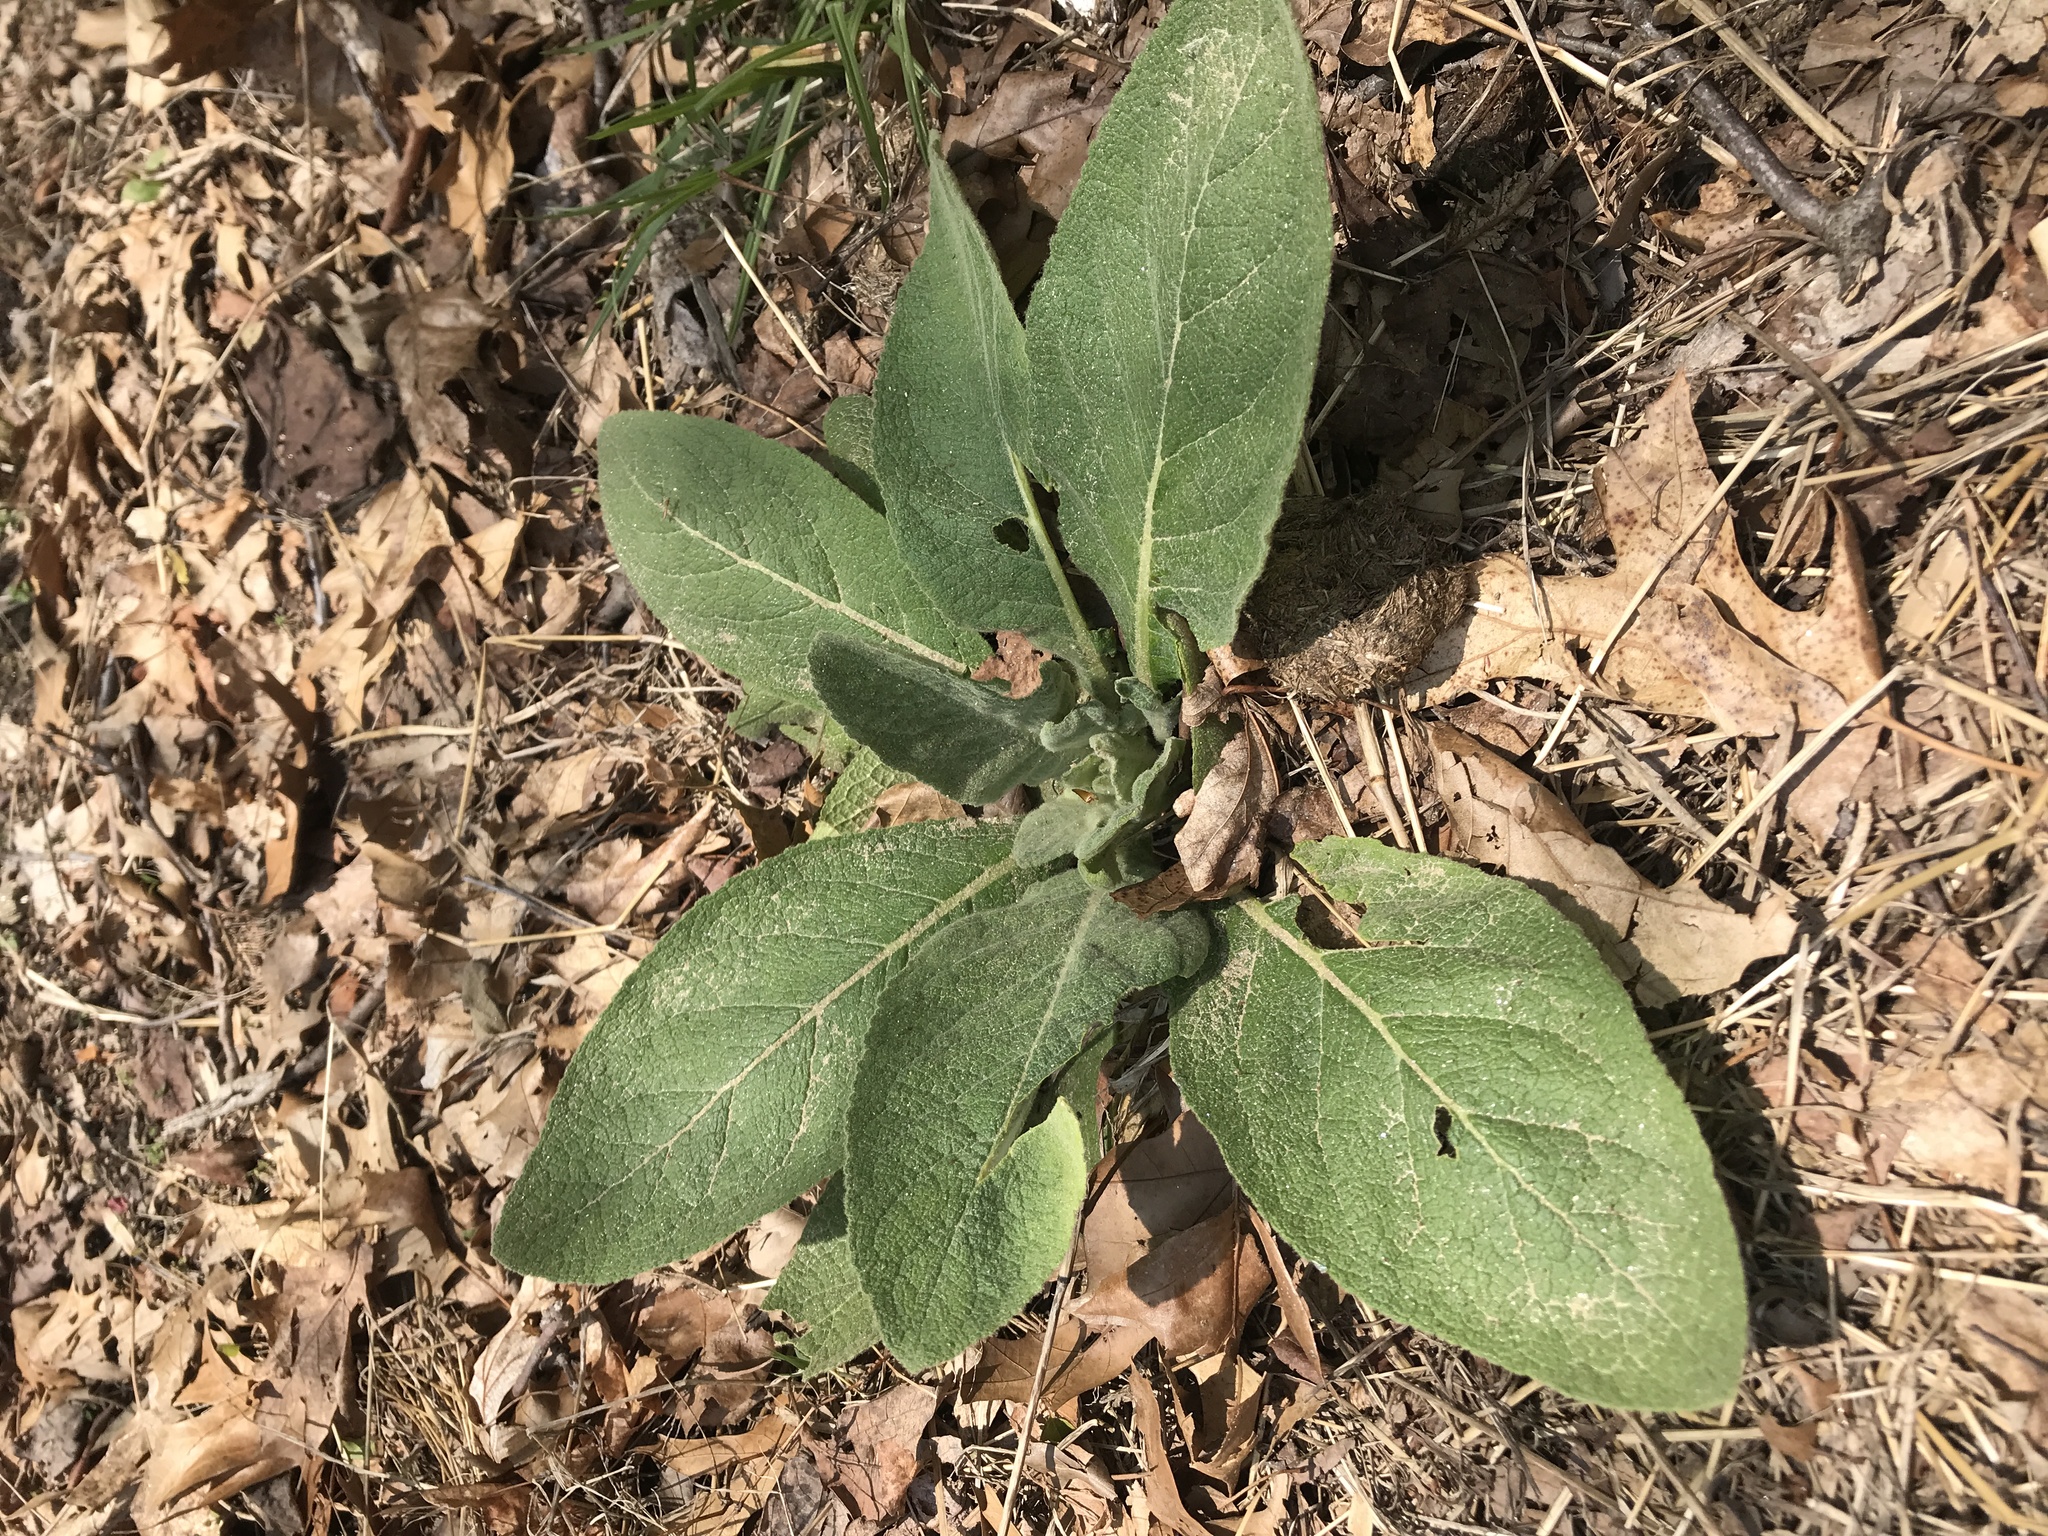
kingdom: Plantae
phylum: Tracheophyta
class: Magnoliopsida
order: Lamiales
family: Scrophulariaceae
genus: Verbascum
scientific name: Verbascum thapsus
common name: Common mullein
